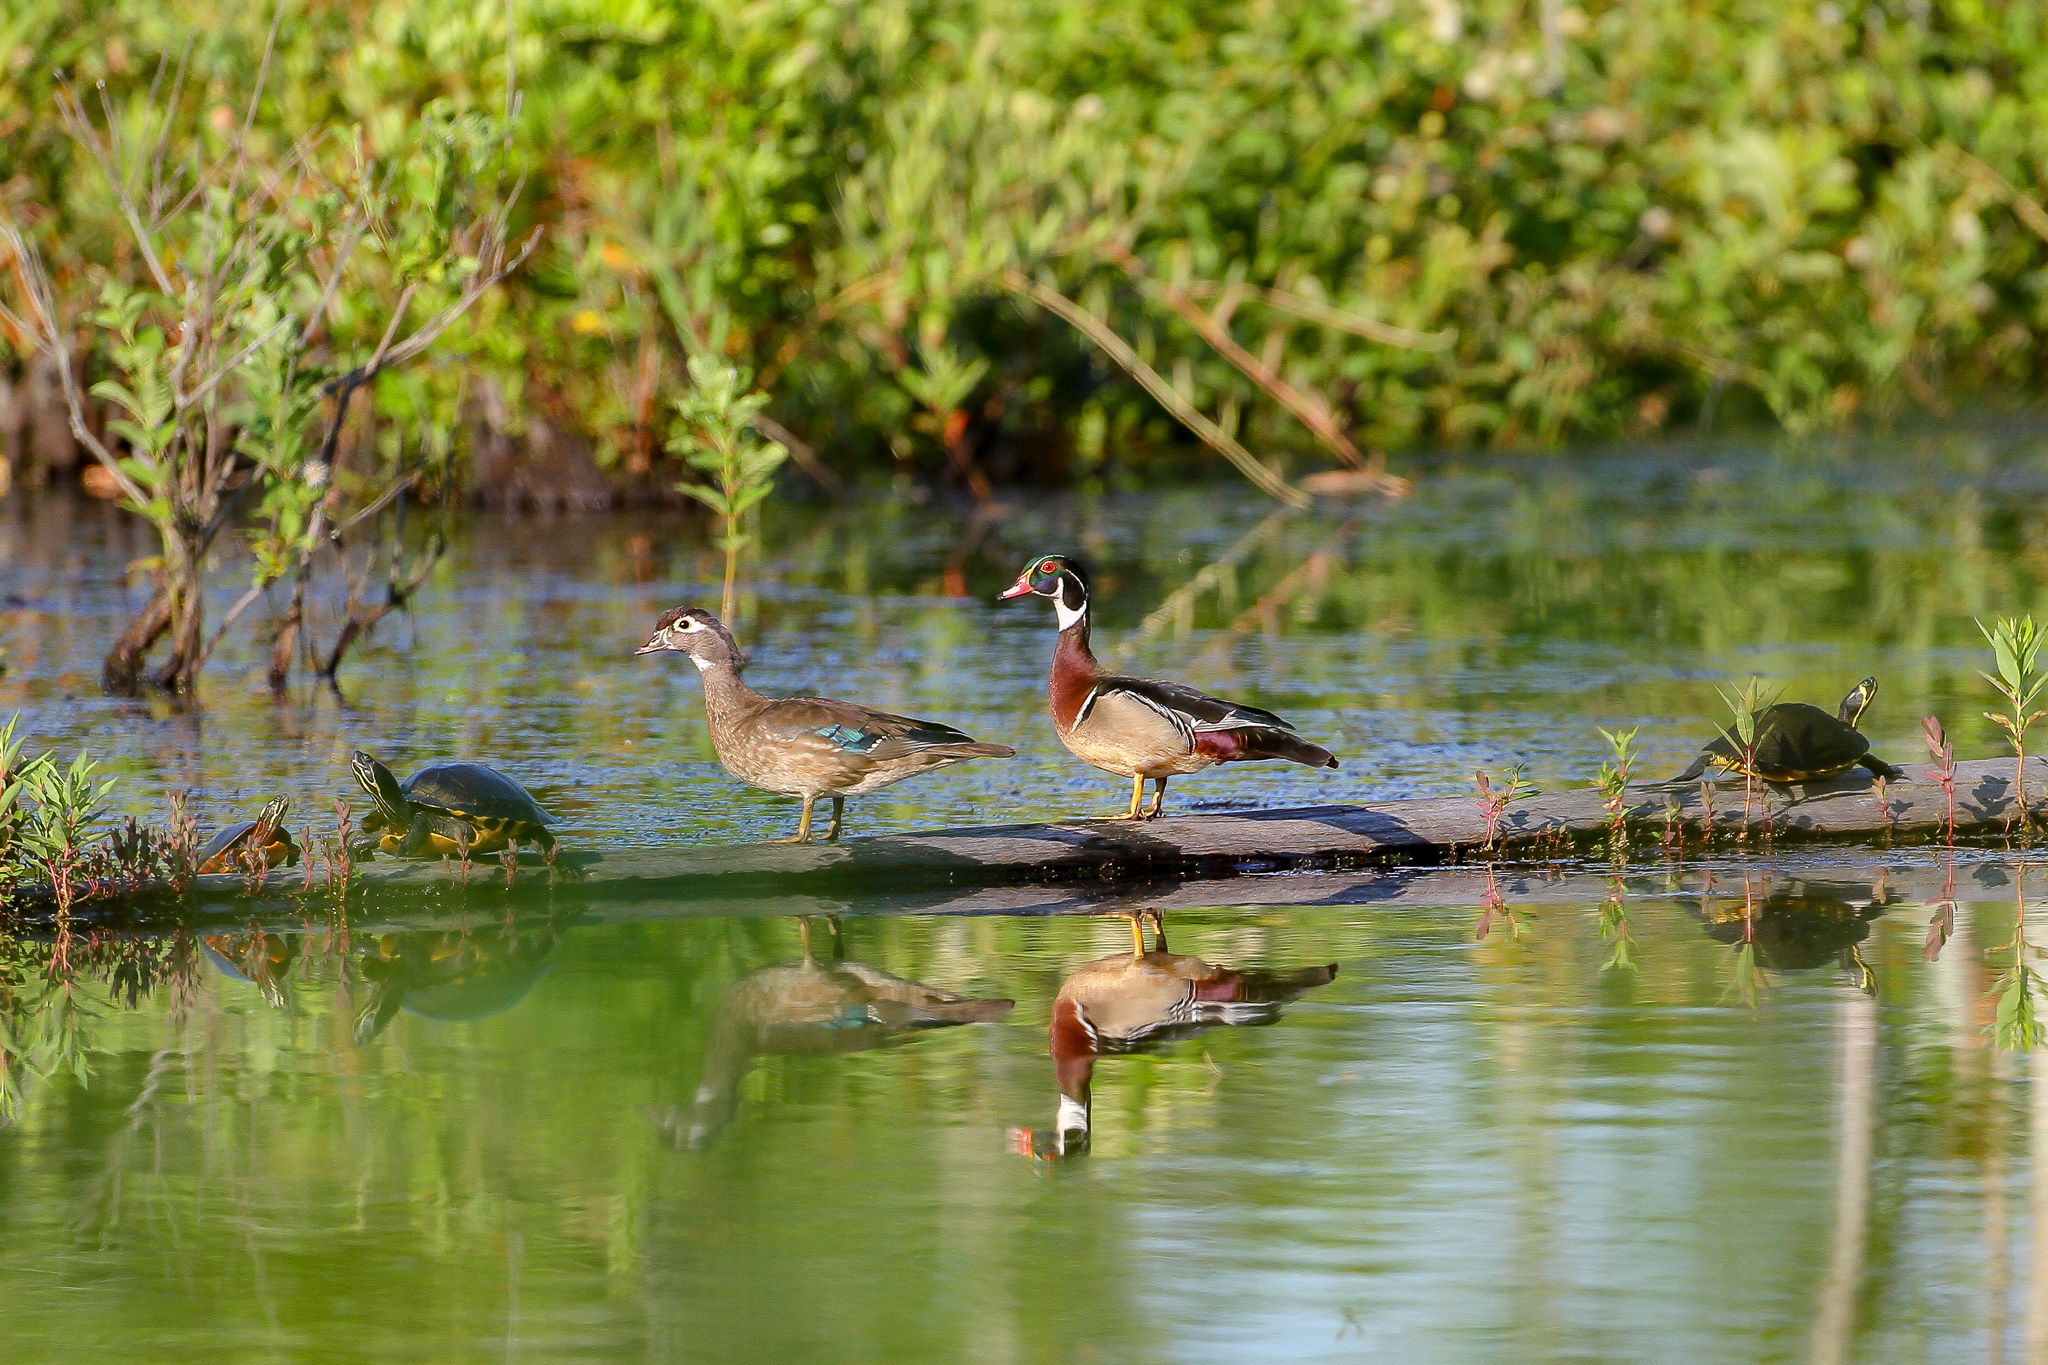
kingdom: Animalia
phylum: Chordata
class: Aves
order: Anseriformes
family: Anatidae
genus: Aix
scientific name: Aix sponsa
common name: Wood duck
